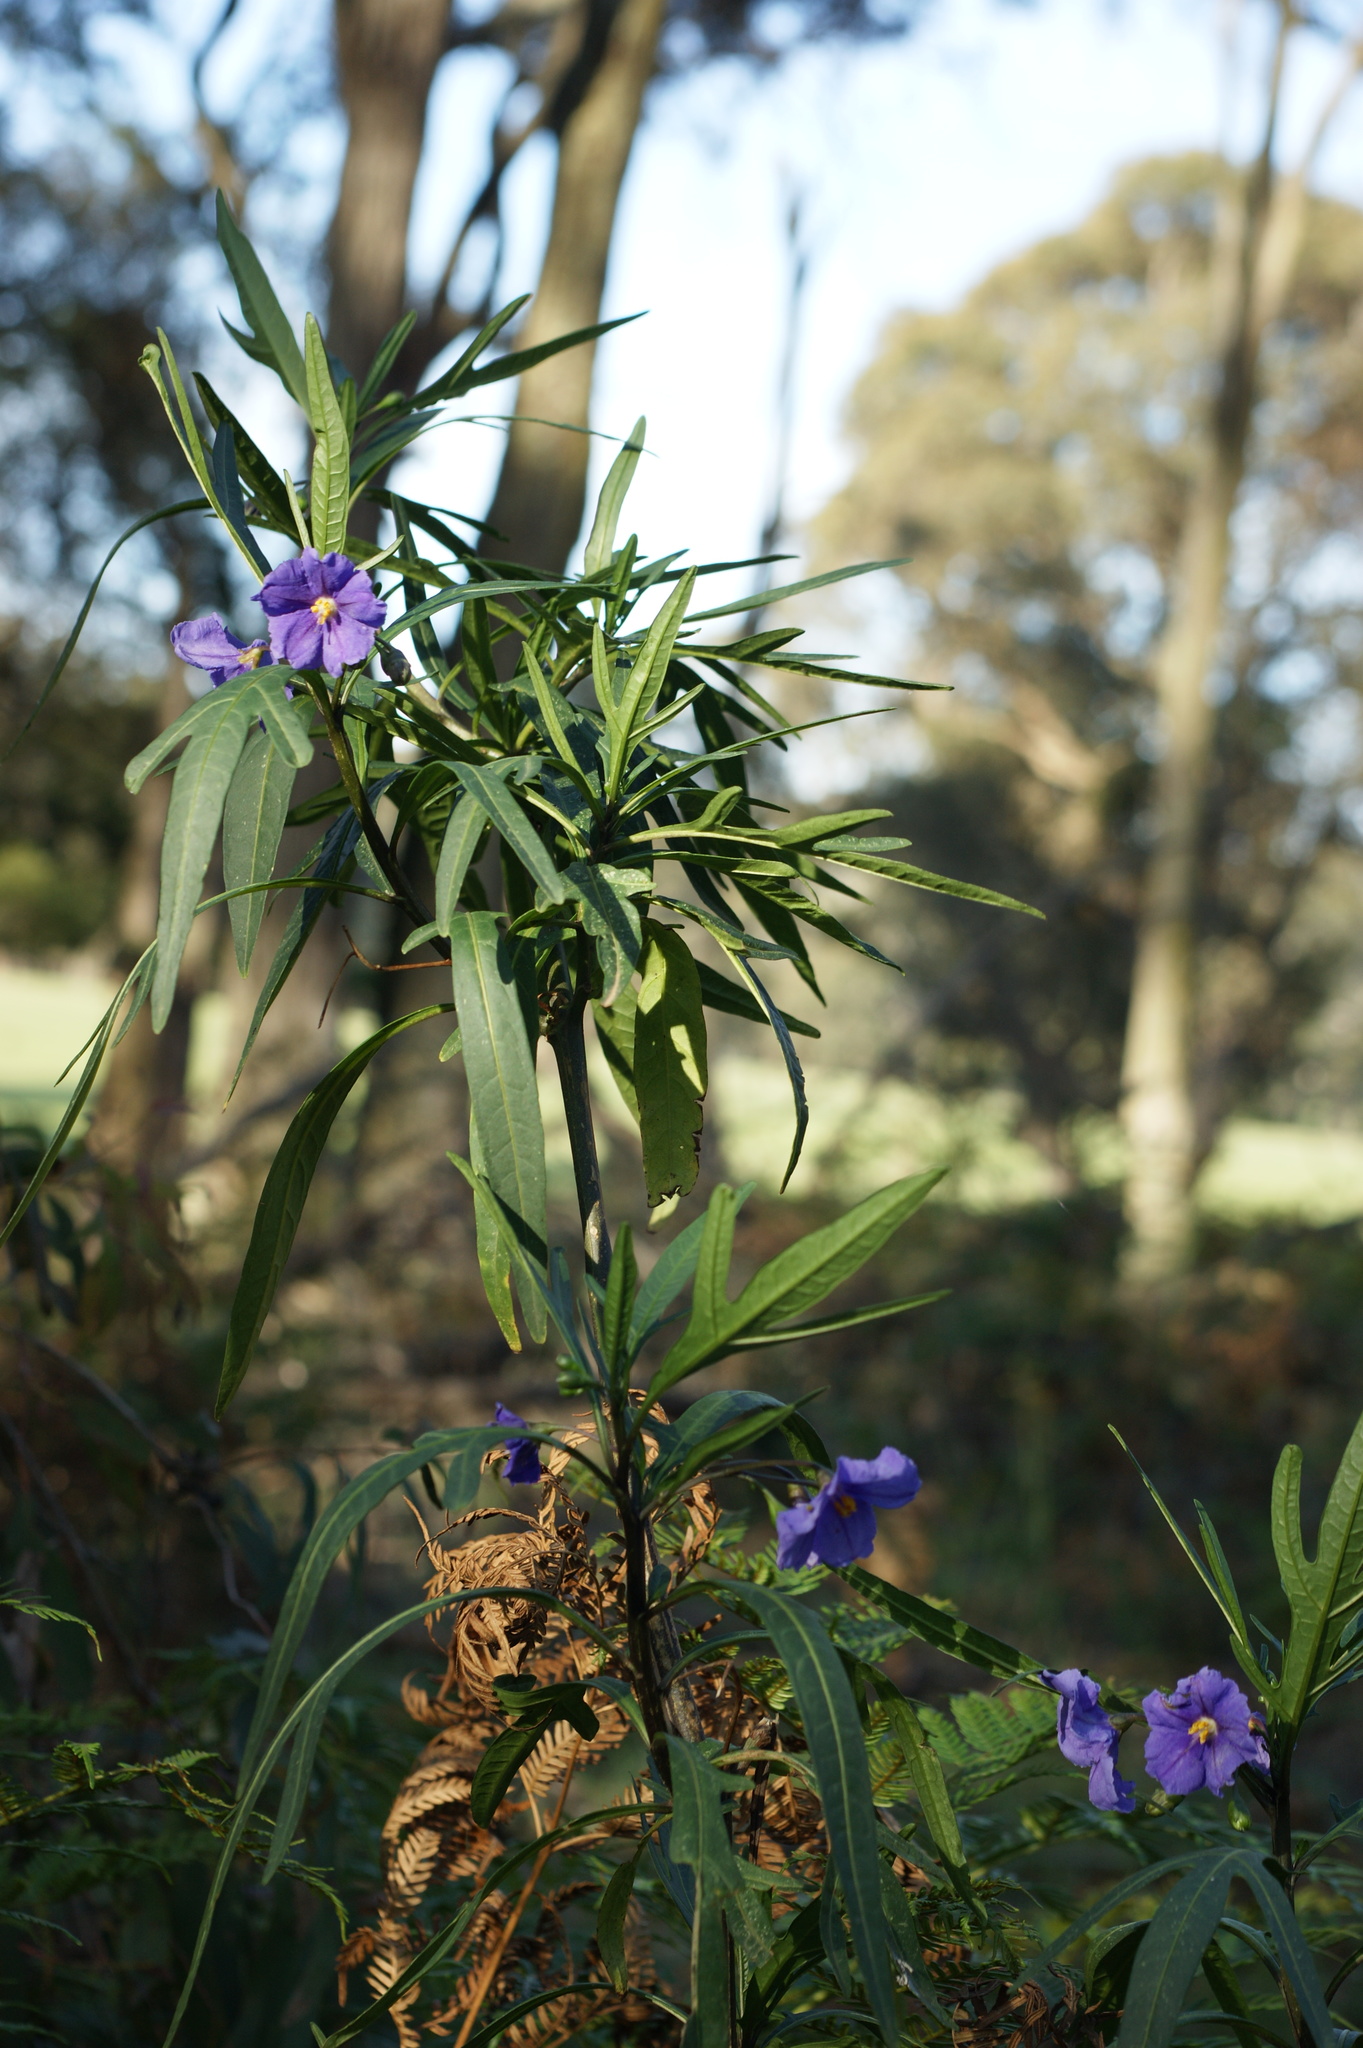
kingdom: Plantae
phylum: Tracheophyta
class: Magnoliopsida
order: Solanales
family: Solanaceae
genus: Solanum
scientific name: Solanum laciniatum
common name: Kangaroo-apple
